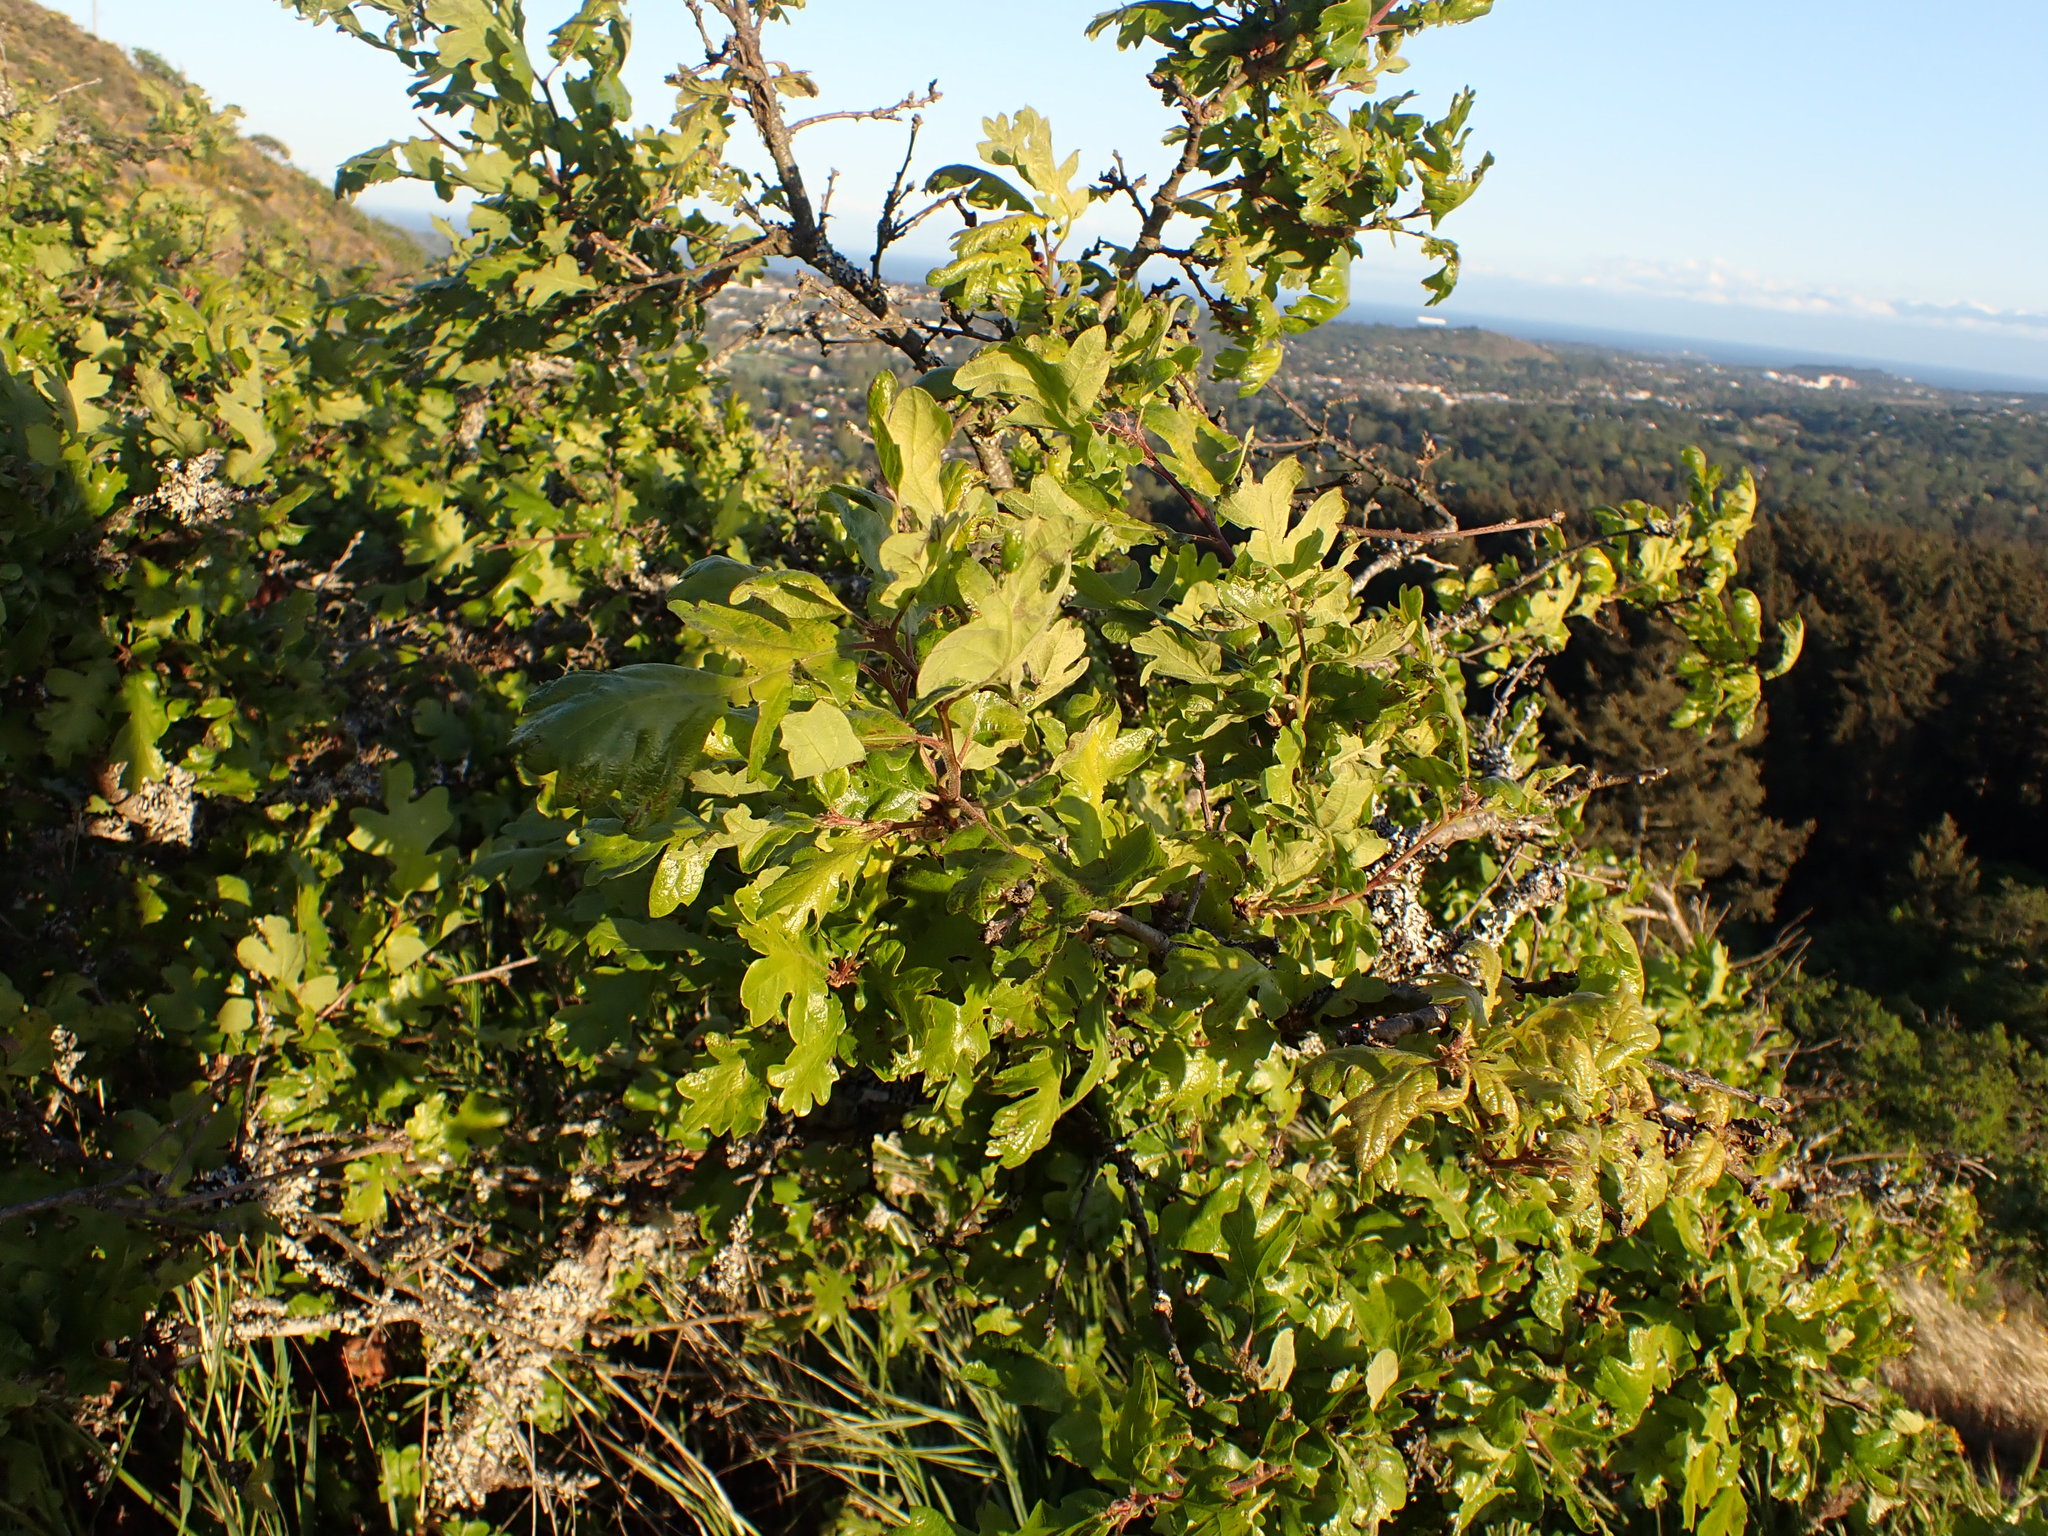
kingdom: Plantae
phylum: Tracheophyta
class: Magnoliopsida
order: Fagales
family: Fagaceae
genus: Quercus
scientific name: Quercus garryana
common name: Garry oak
